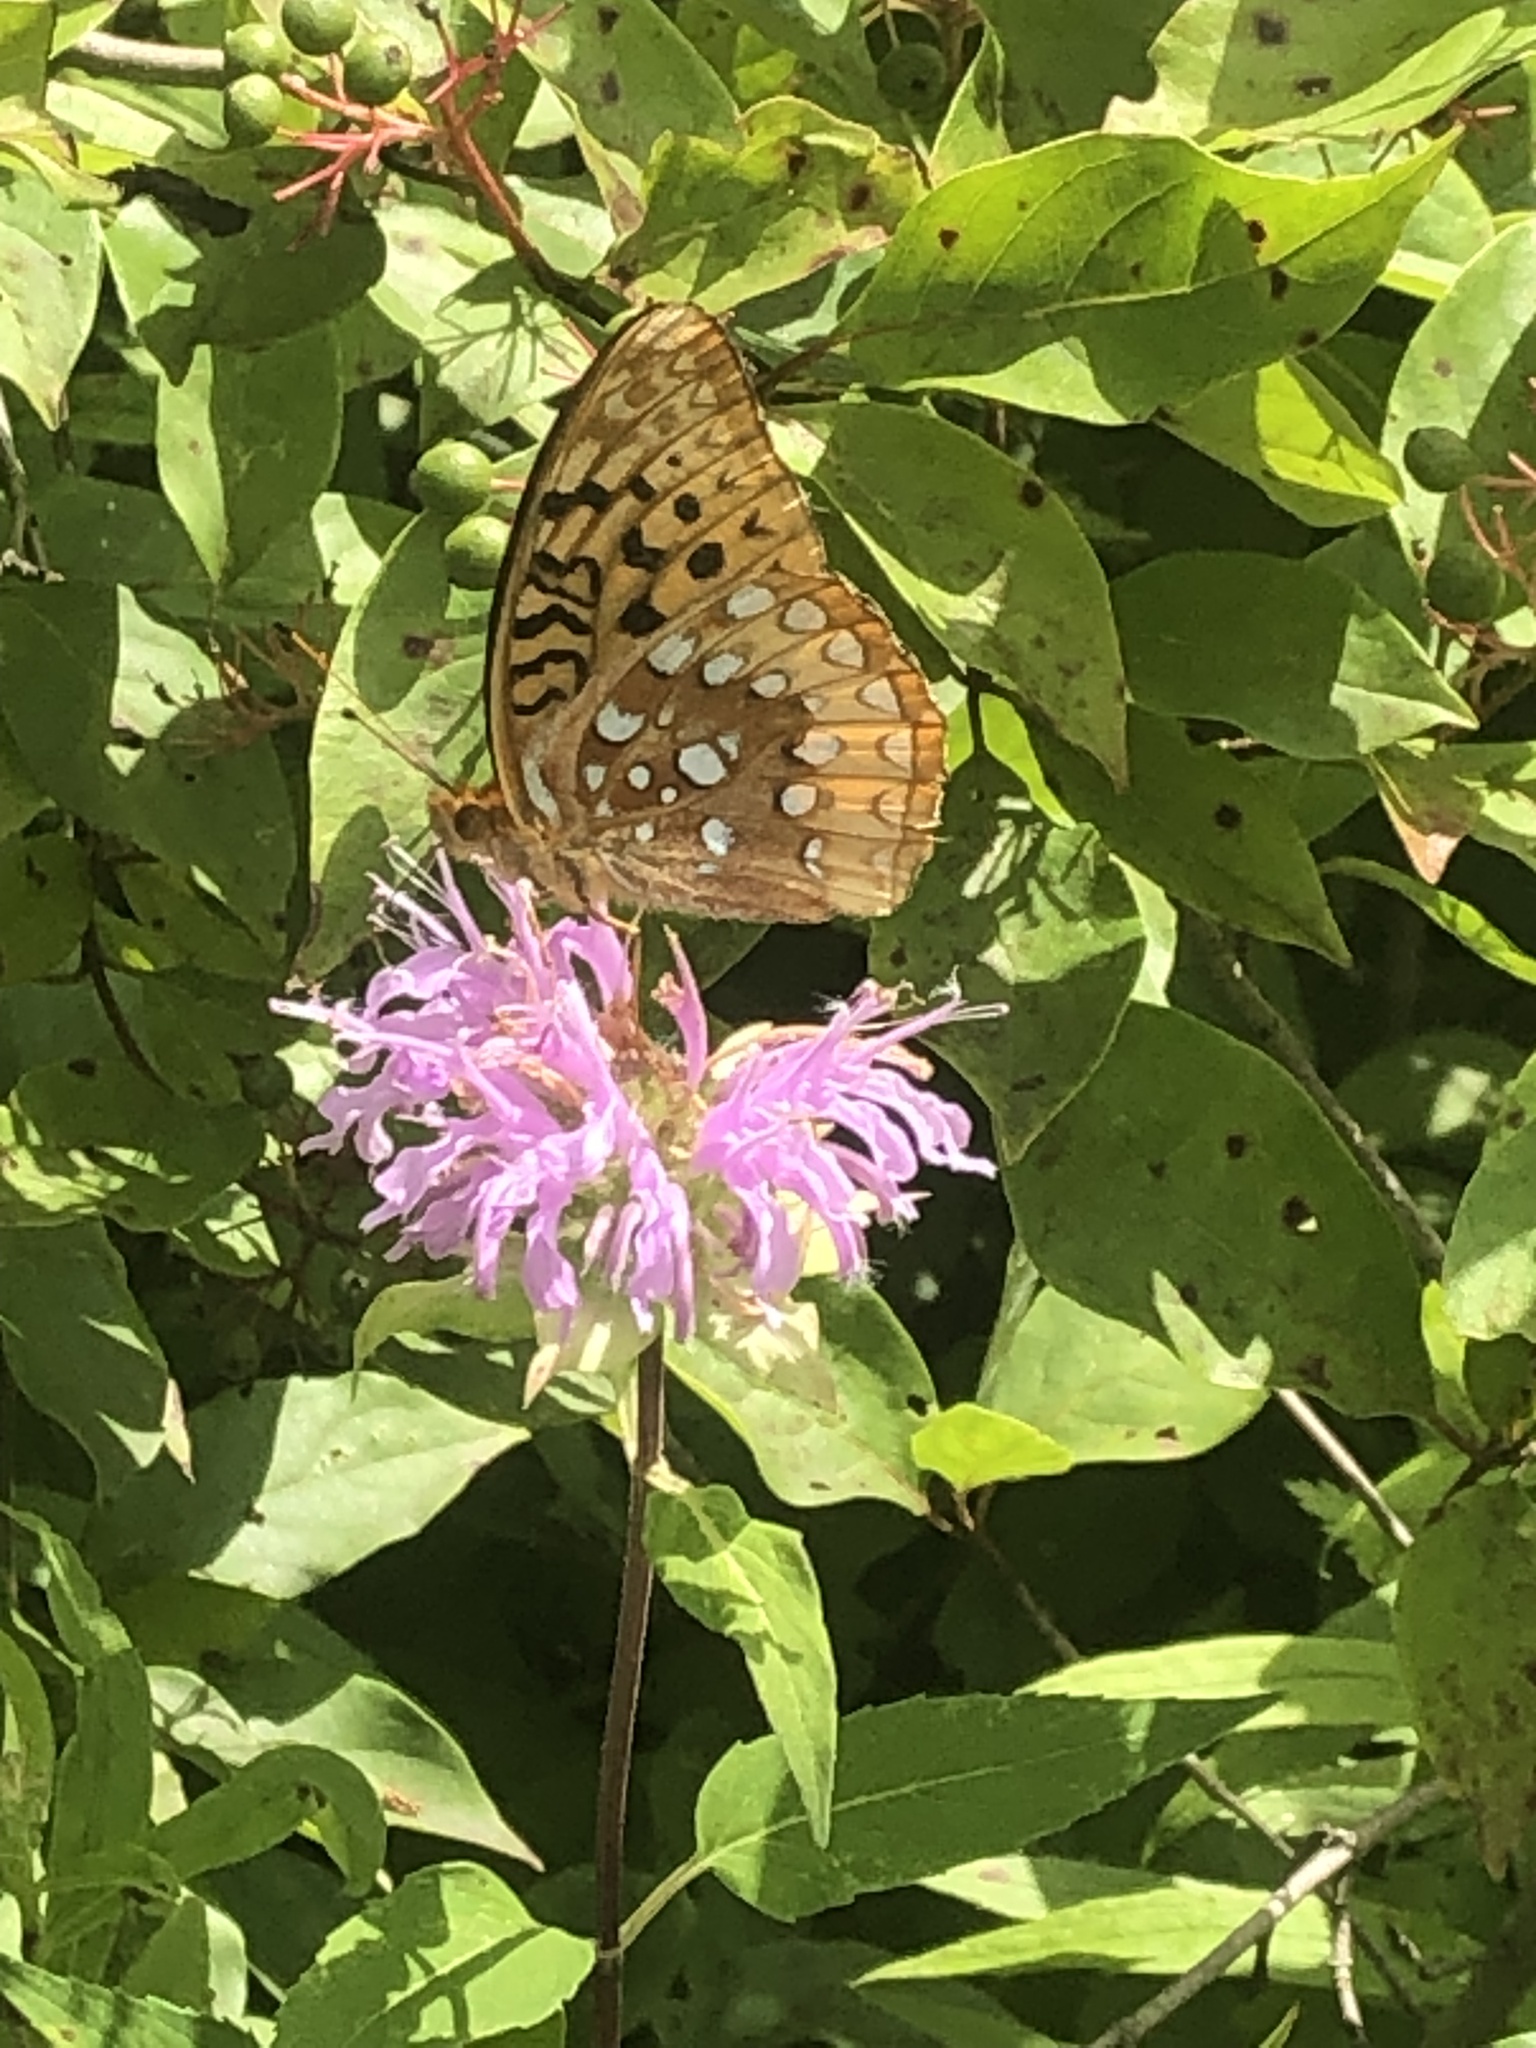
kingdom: Animalia
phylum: Arthropoda
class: Insecta
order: Lepidoptera
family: Nymphalidae
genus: Speyeria
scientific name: Speyeria cybele
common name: Great spangled fritillary
